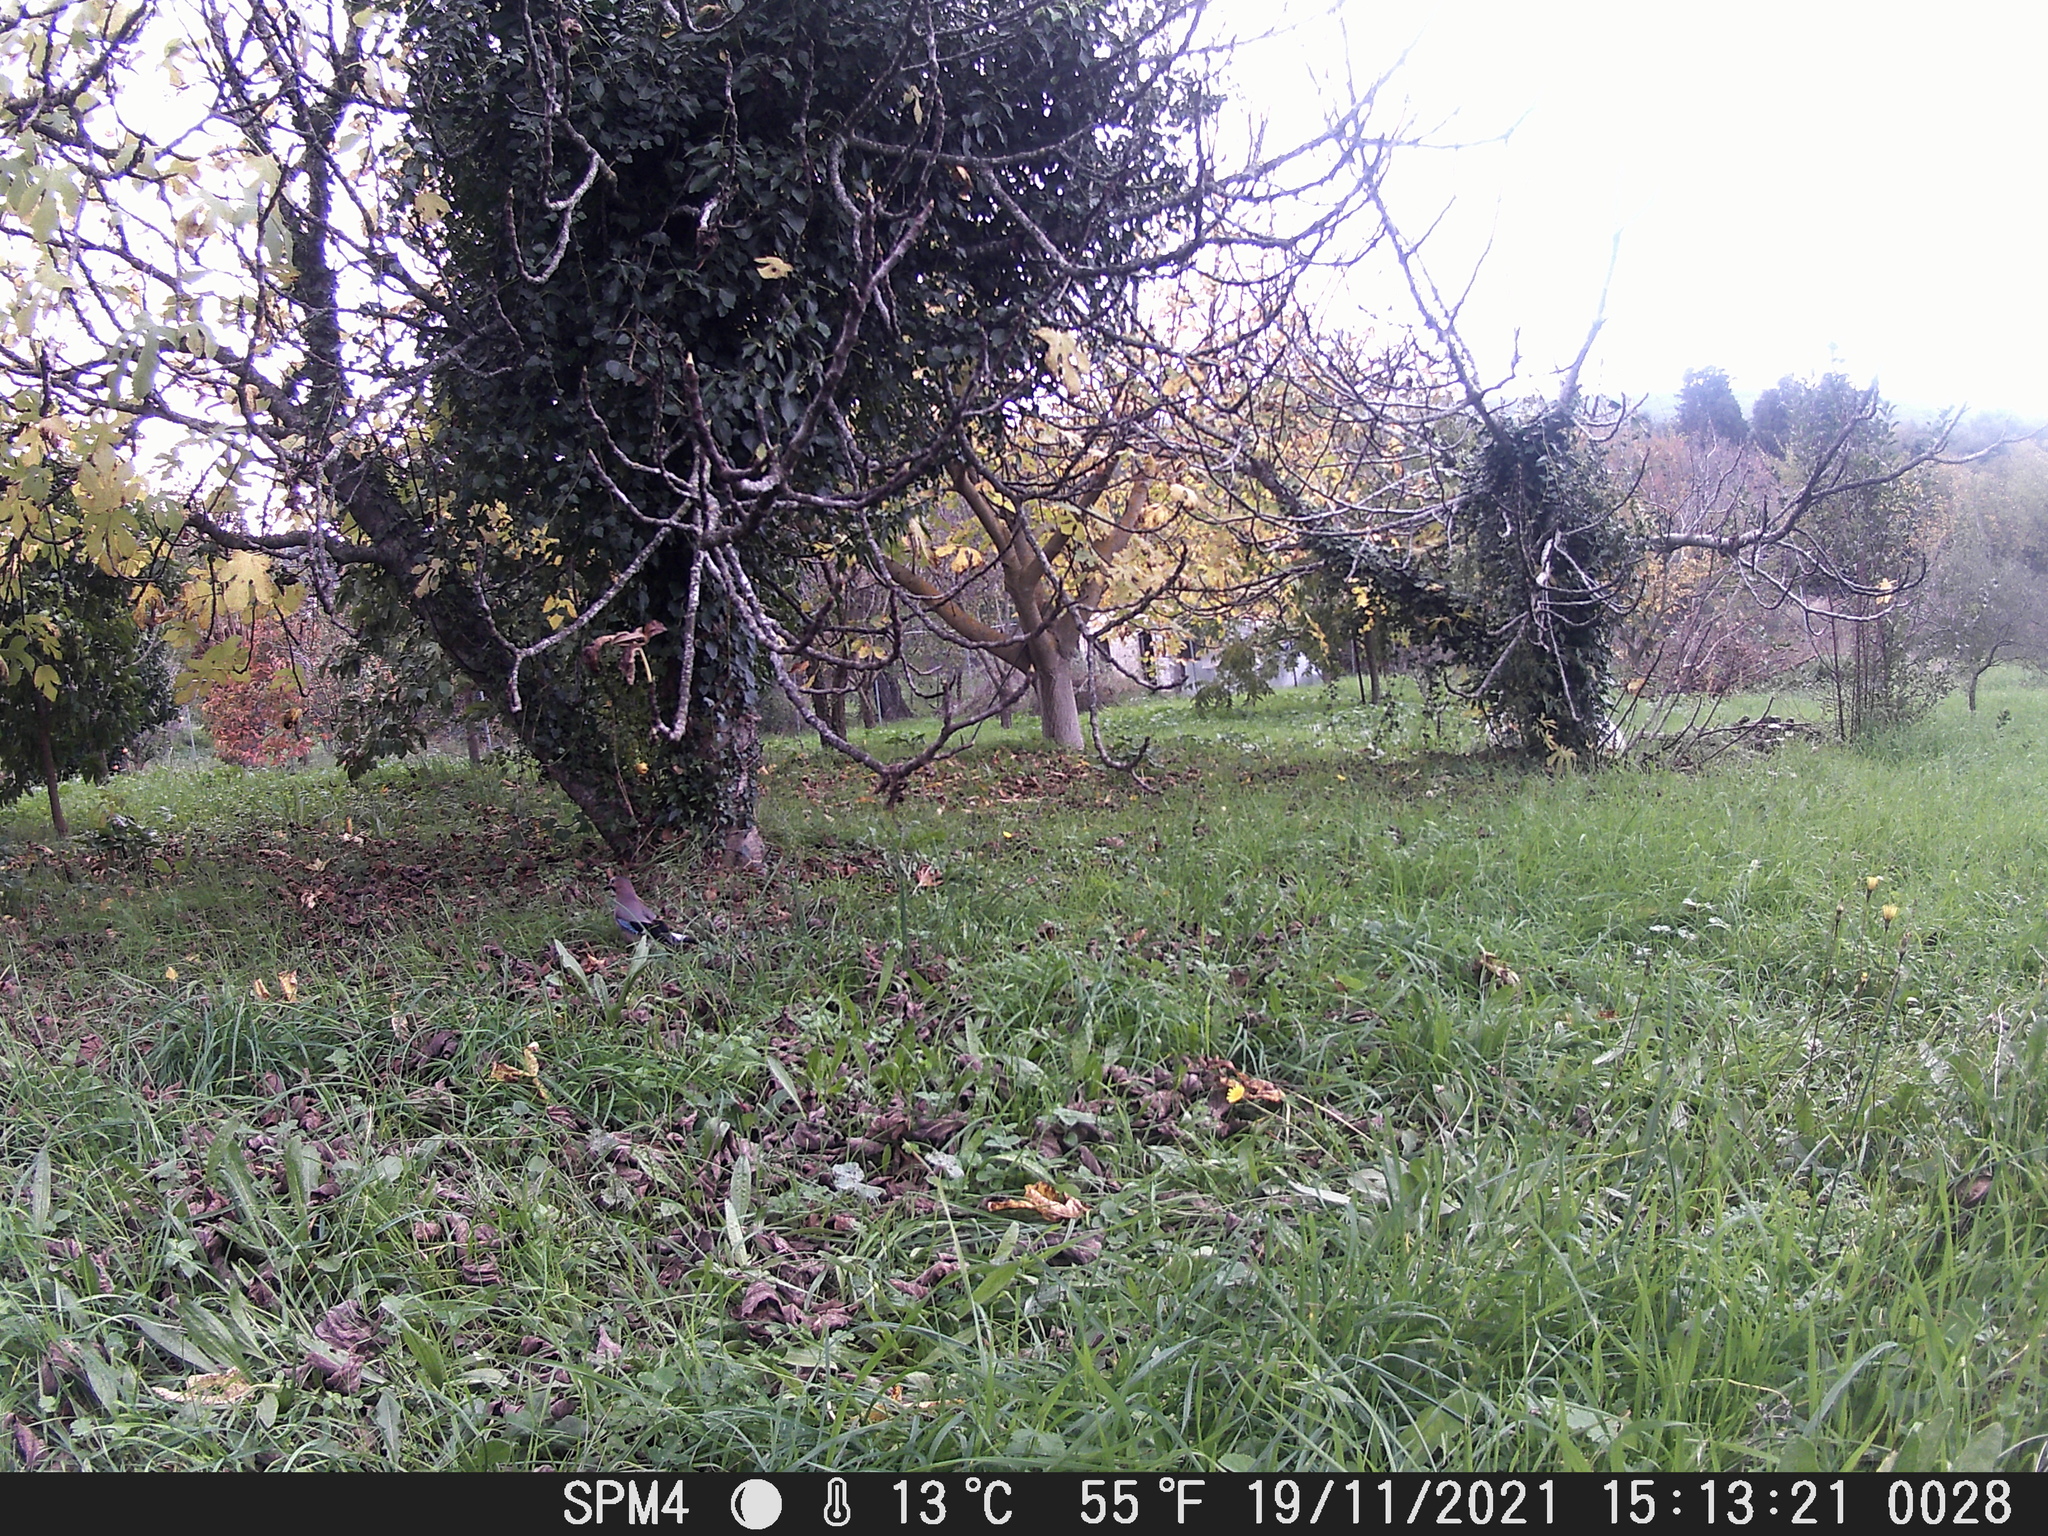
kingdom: Animalia
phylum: Chordata
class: Aves
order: Passeriformes
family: Corvidae
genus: Garrulus
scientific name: Garrulus glandarius
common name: Eurasian jay
